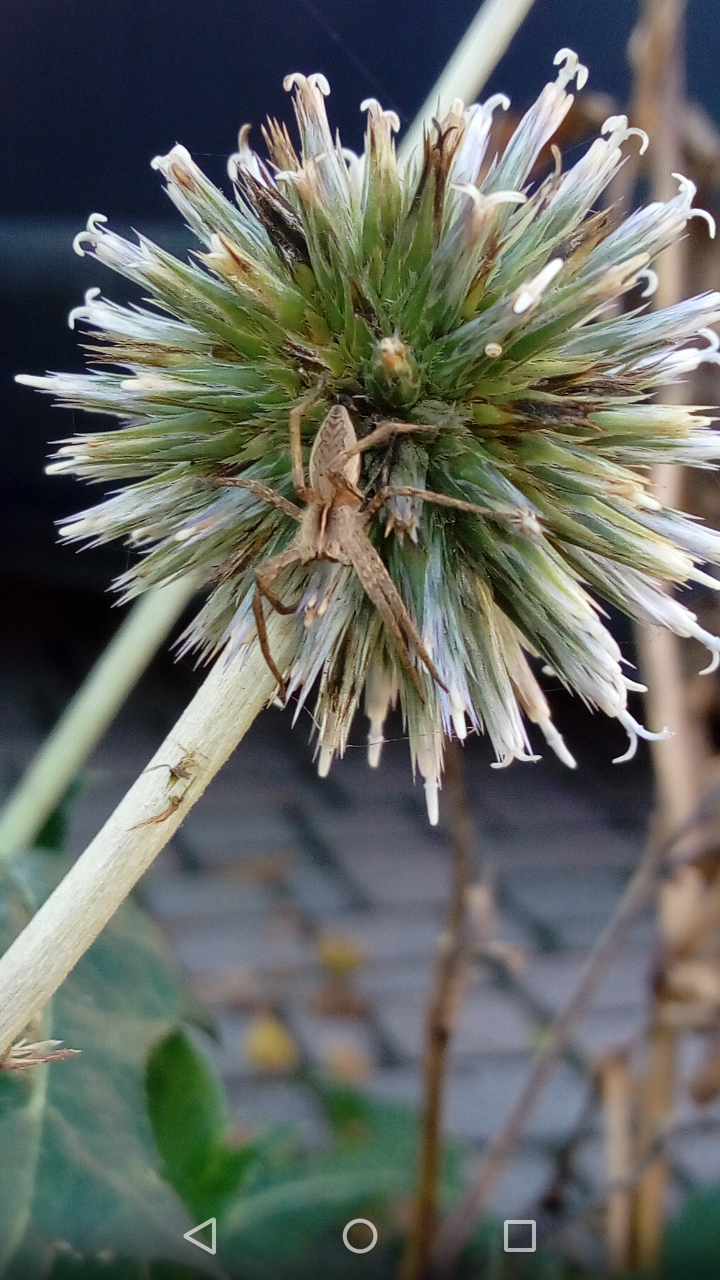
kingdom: Animalia
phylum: Arthropoda
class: Arachnida
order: Araneae
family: Pisauridae
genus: Pisaura
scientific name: Pisaura mirabilis
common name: Tent spider
